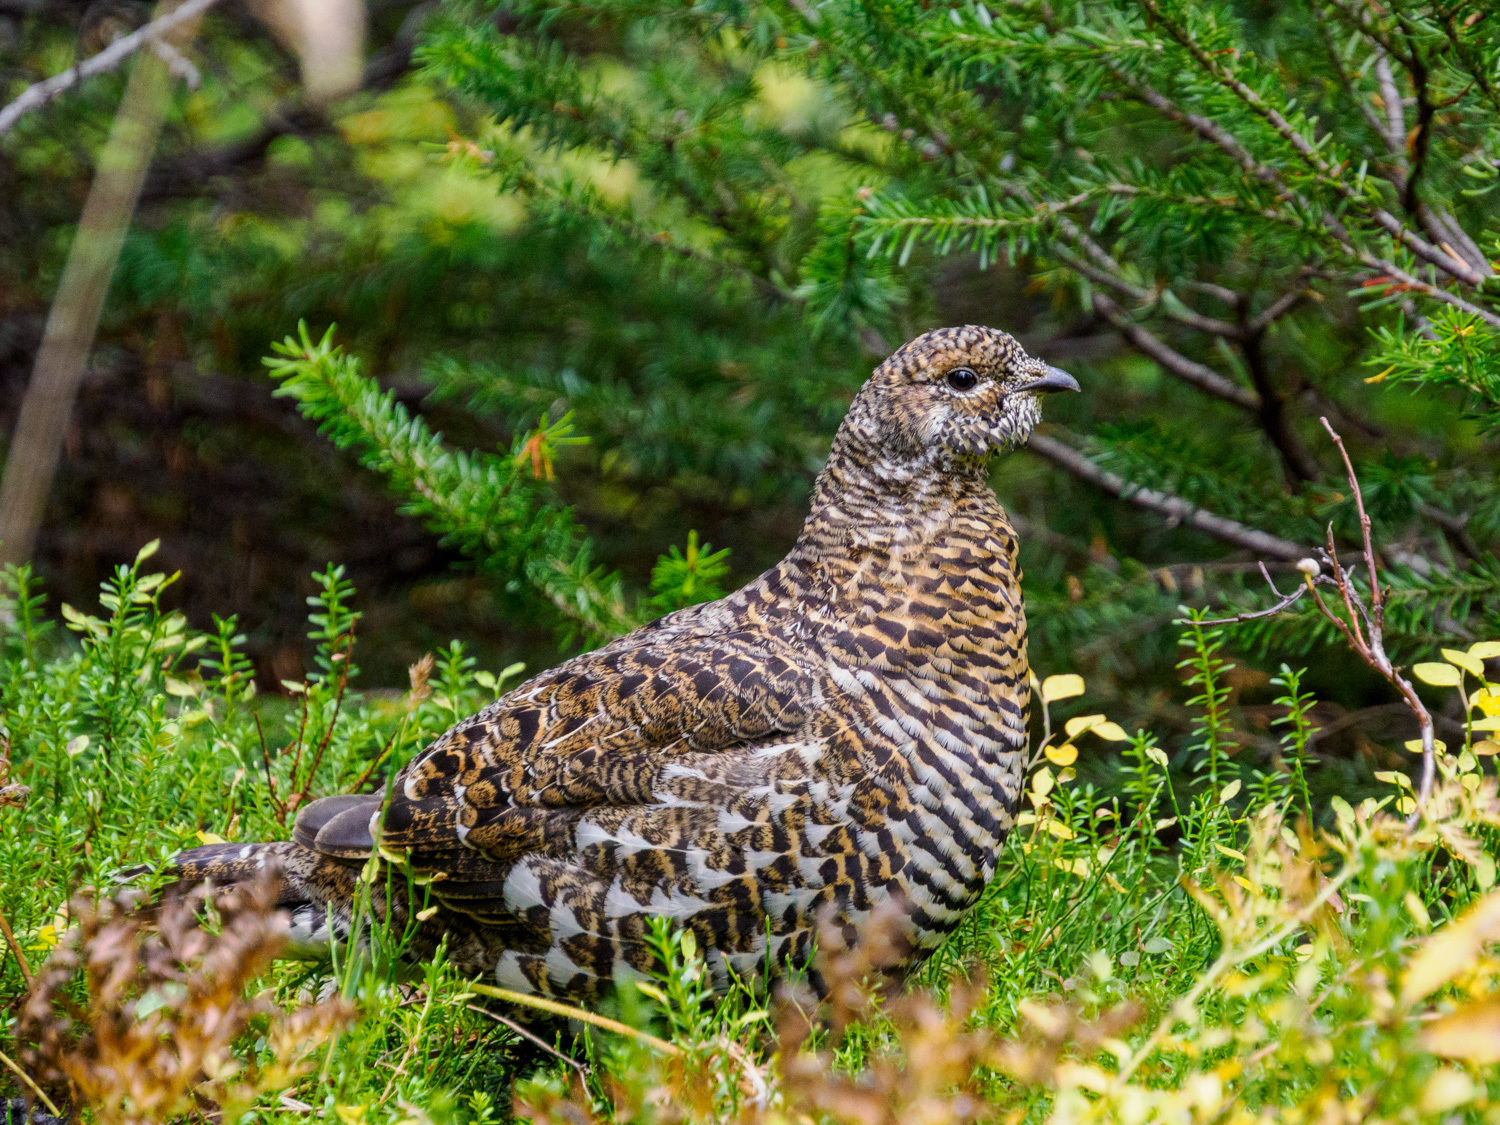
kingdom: Animalia
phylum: Chordata
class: Aves
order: Galliformes
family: Phasianidae
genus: Canachites
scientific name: Canachites canadensis
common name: Spruce grouse
